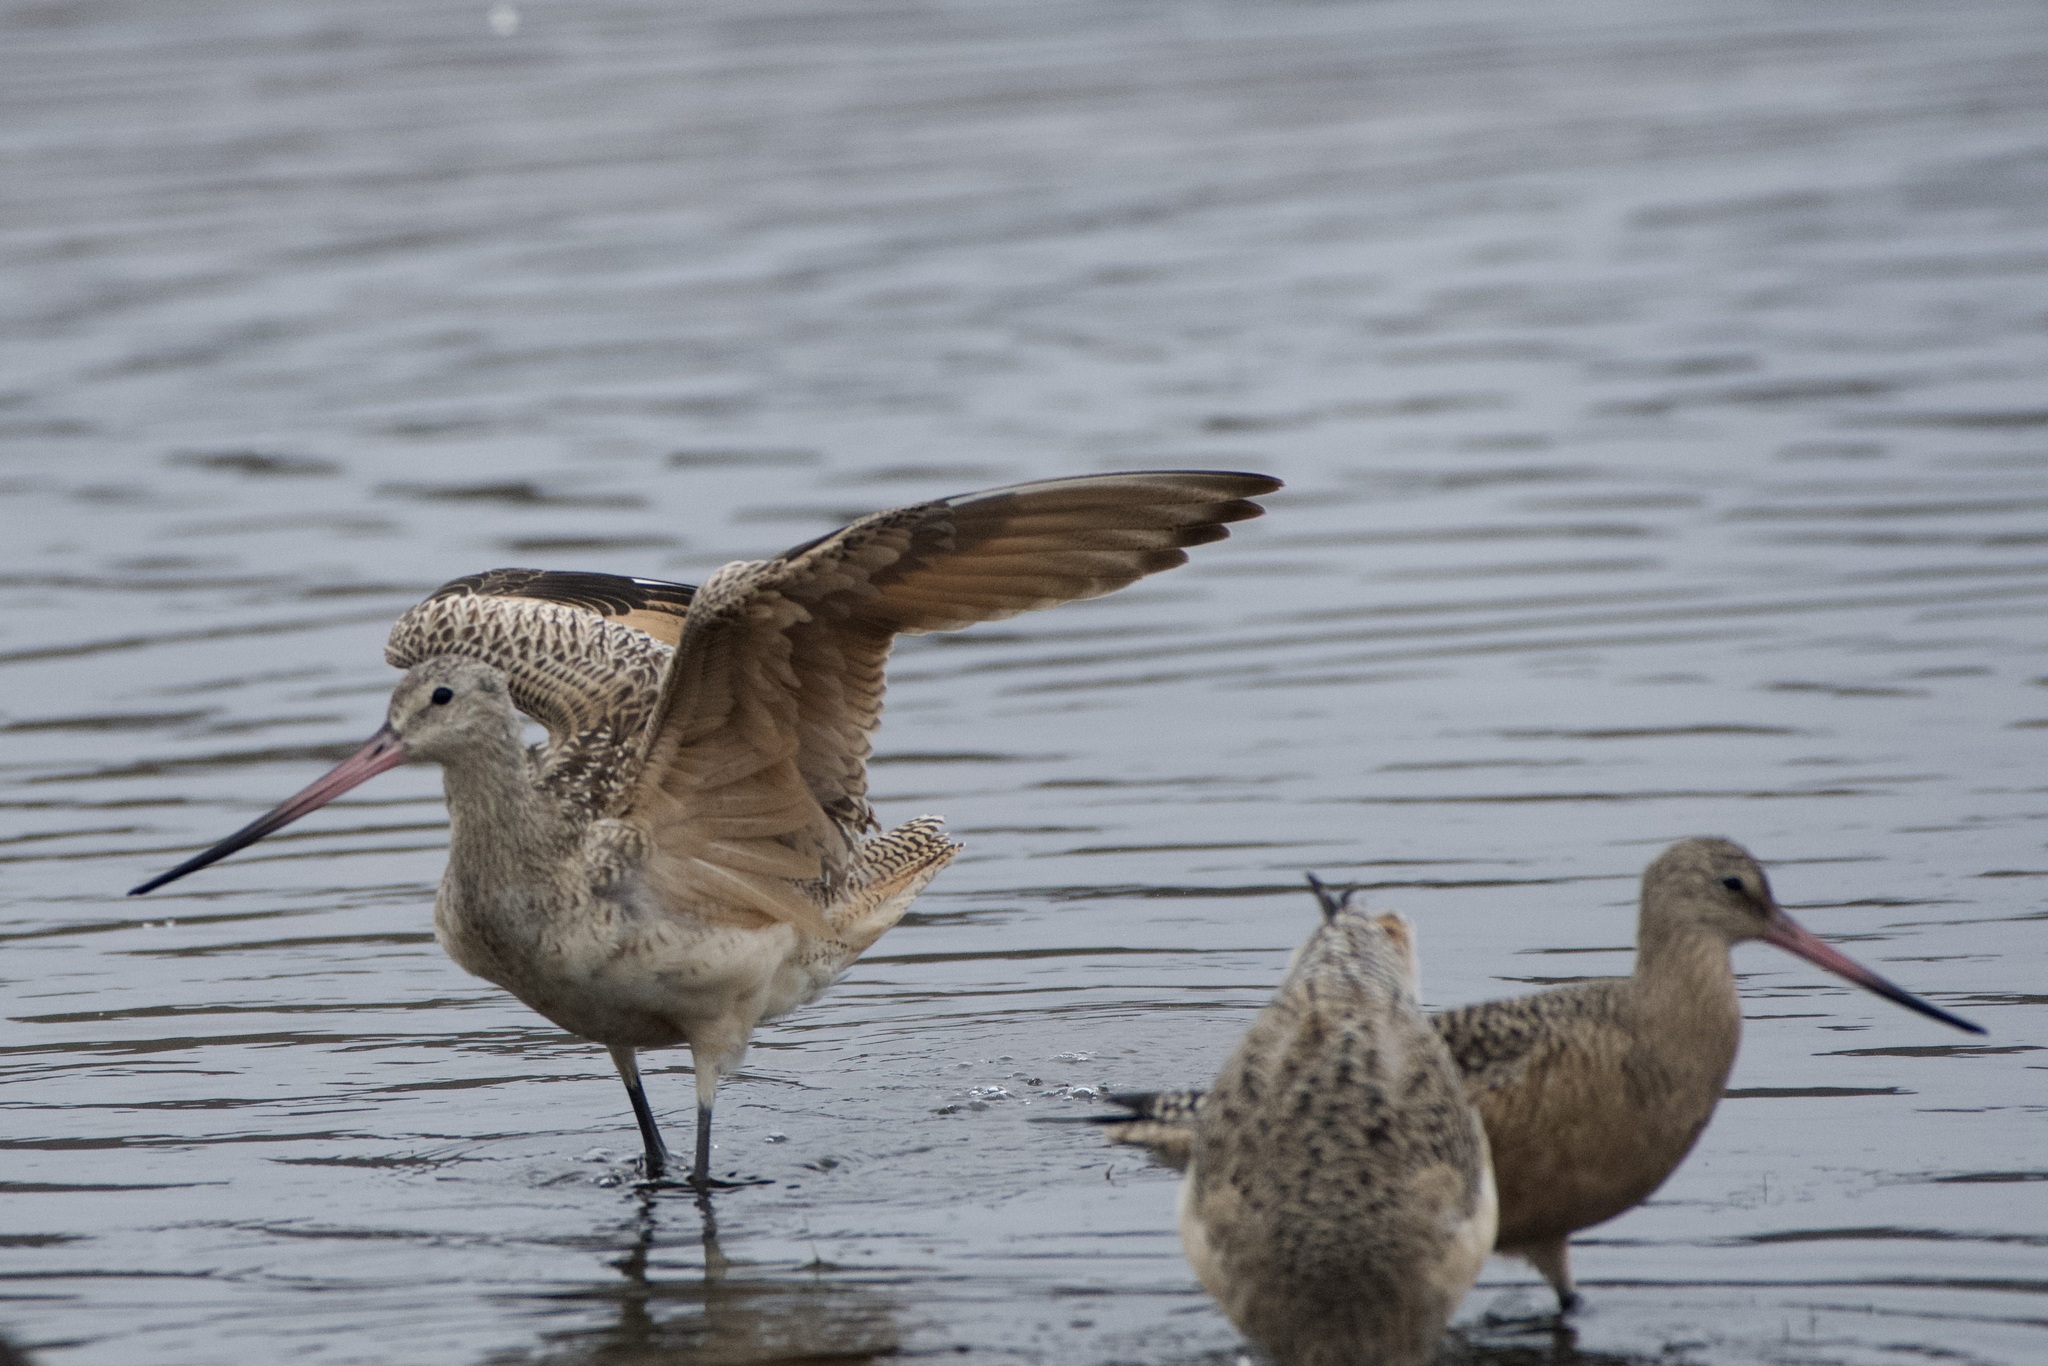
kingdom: Animalia
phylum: Chordata
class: Aves
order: Charadriiformes
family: Scolopacidae
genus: Limosa
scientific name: Limosa fedoa
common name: Marbled godwit
